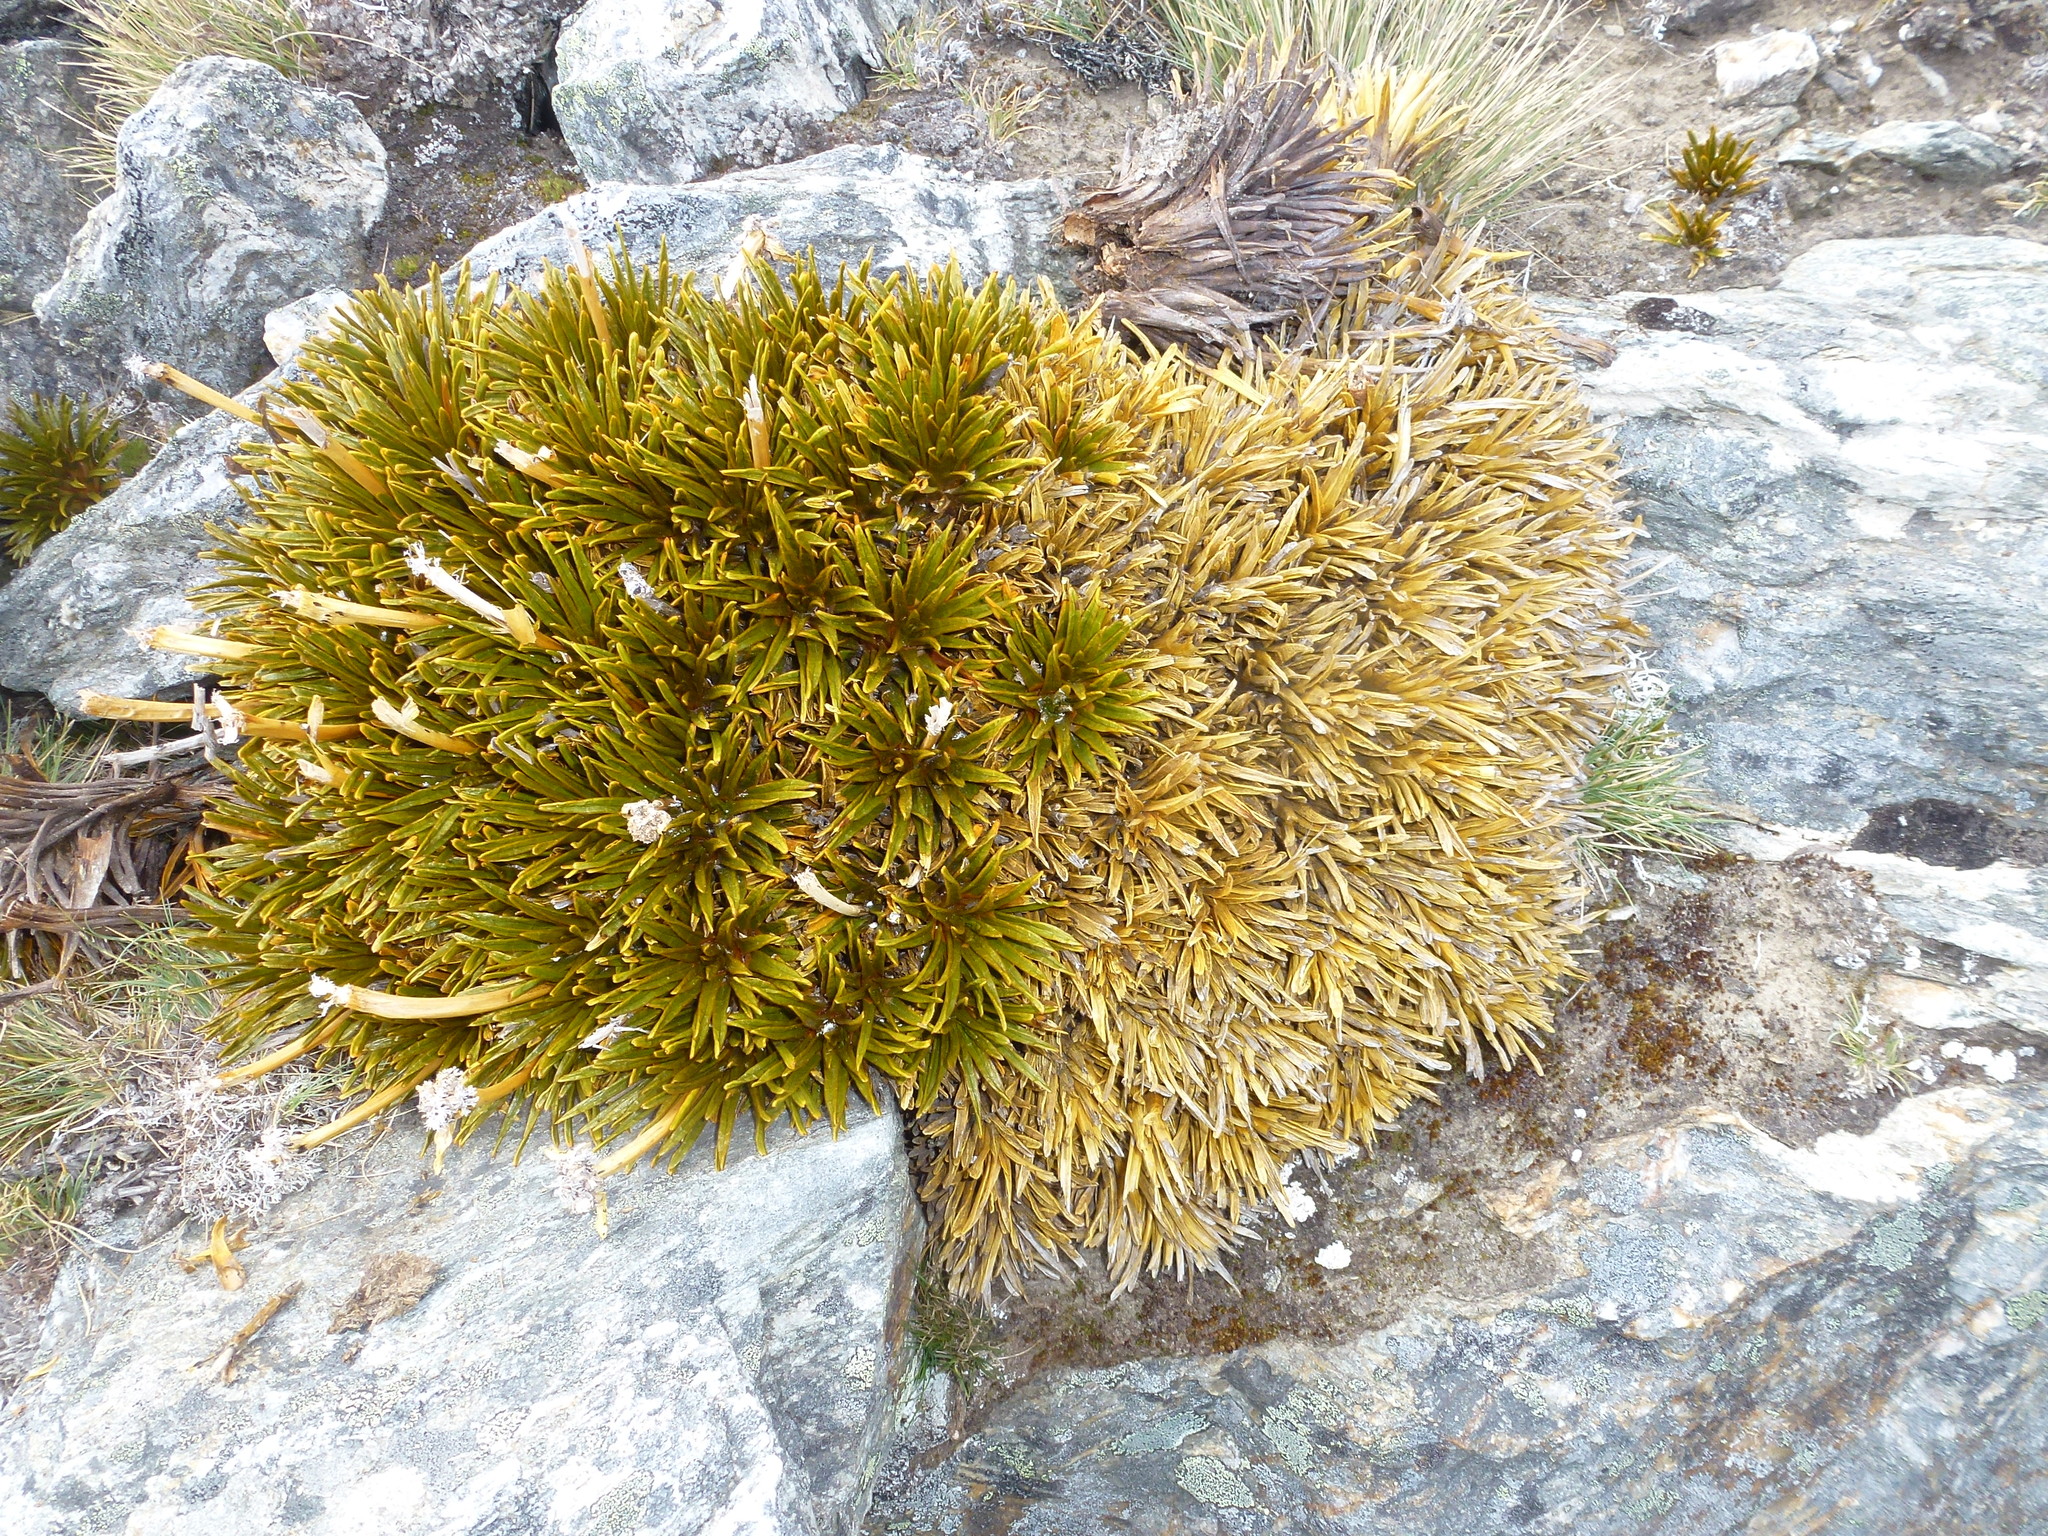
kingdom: Plantae
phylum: Tracheophyta
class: Magnoliopsida
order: Apiales
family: Apiaceae
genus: Aciphylla
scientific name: Aciphylla simplex
